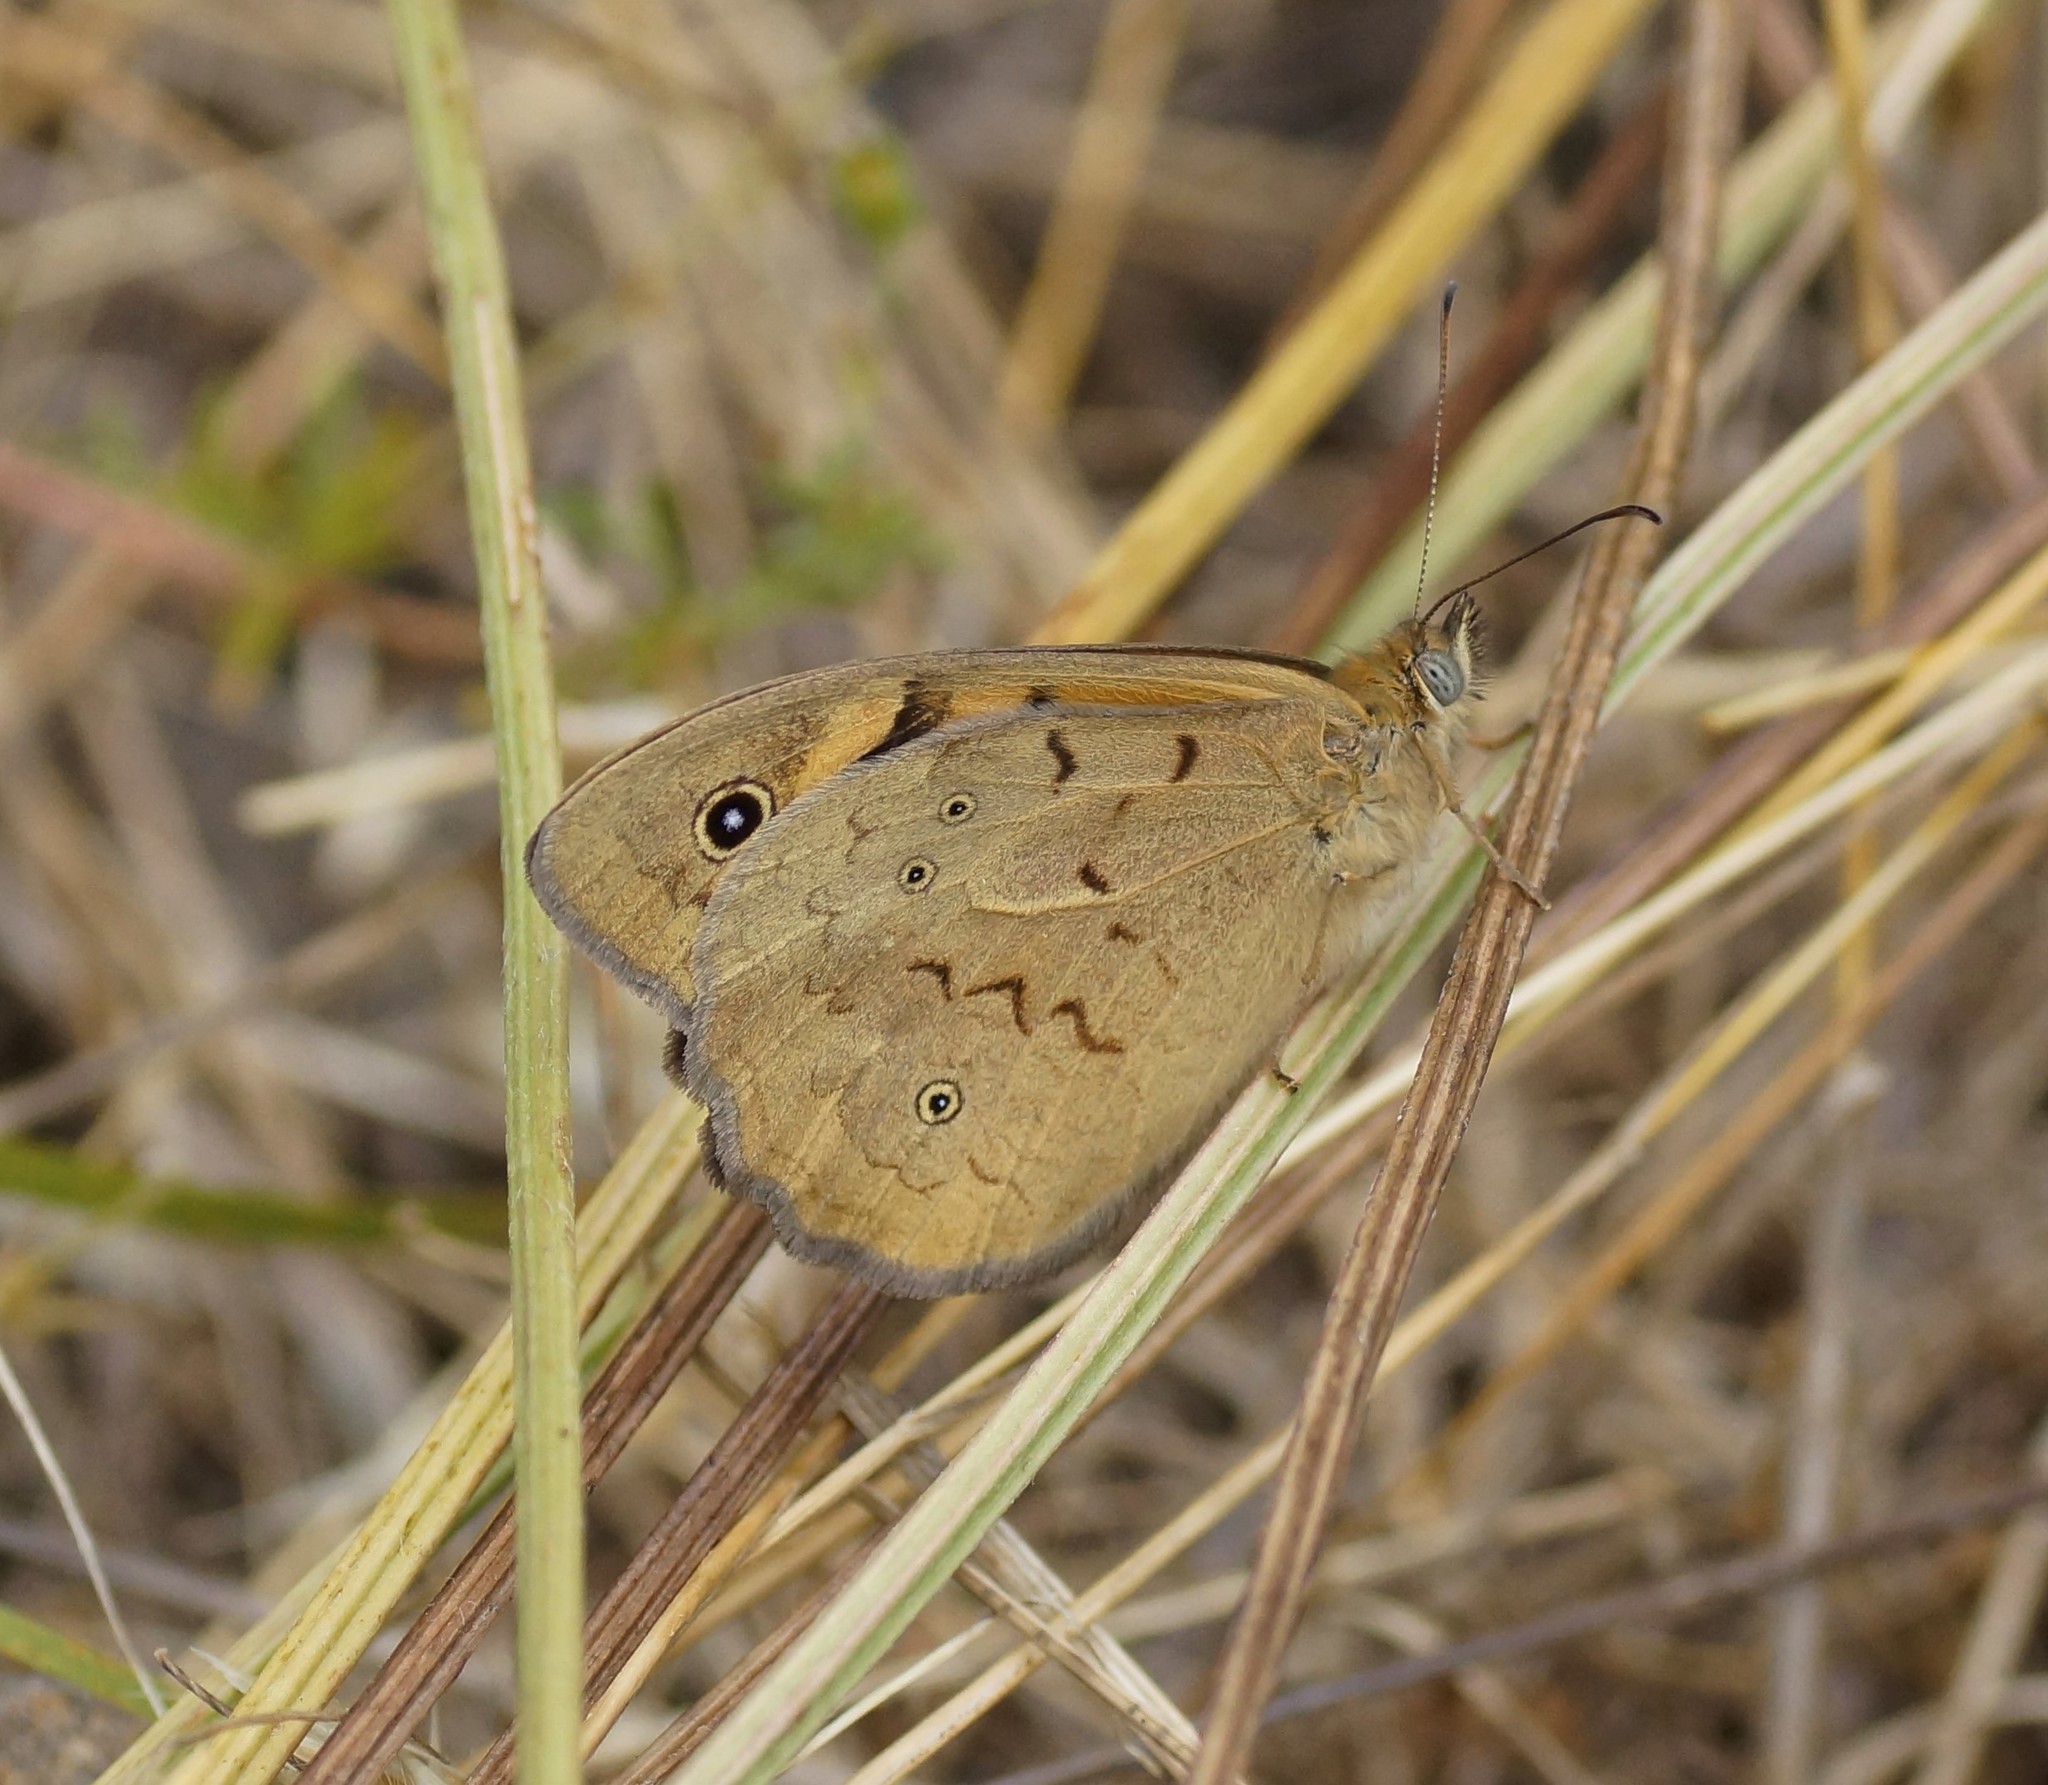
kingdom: Animalia
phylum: Arthropoda
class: Insecta
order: Lepidoptera
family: Nymphalidae
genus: Heteronympha
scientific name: Heteronympha merope
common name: Common brown
